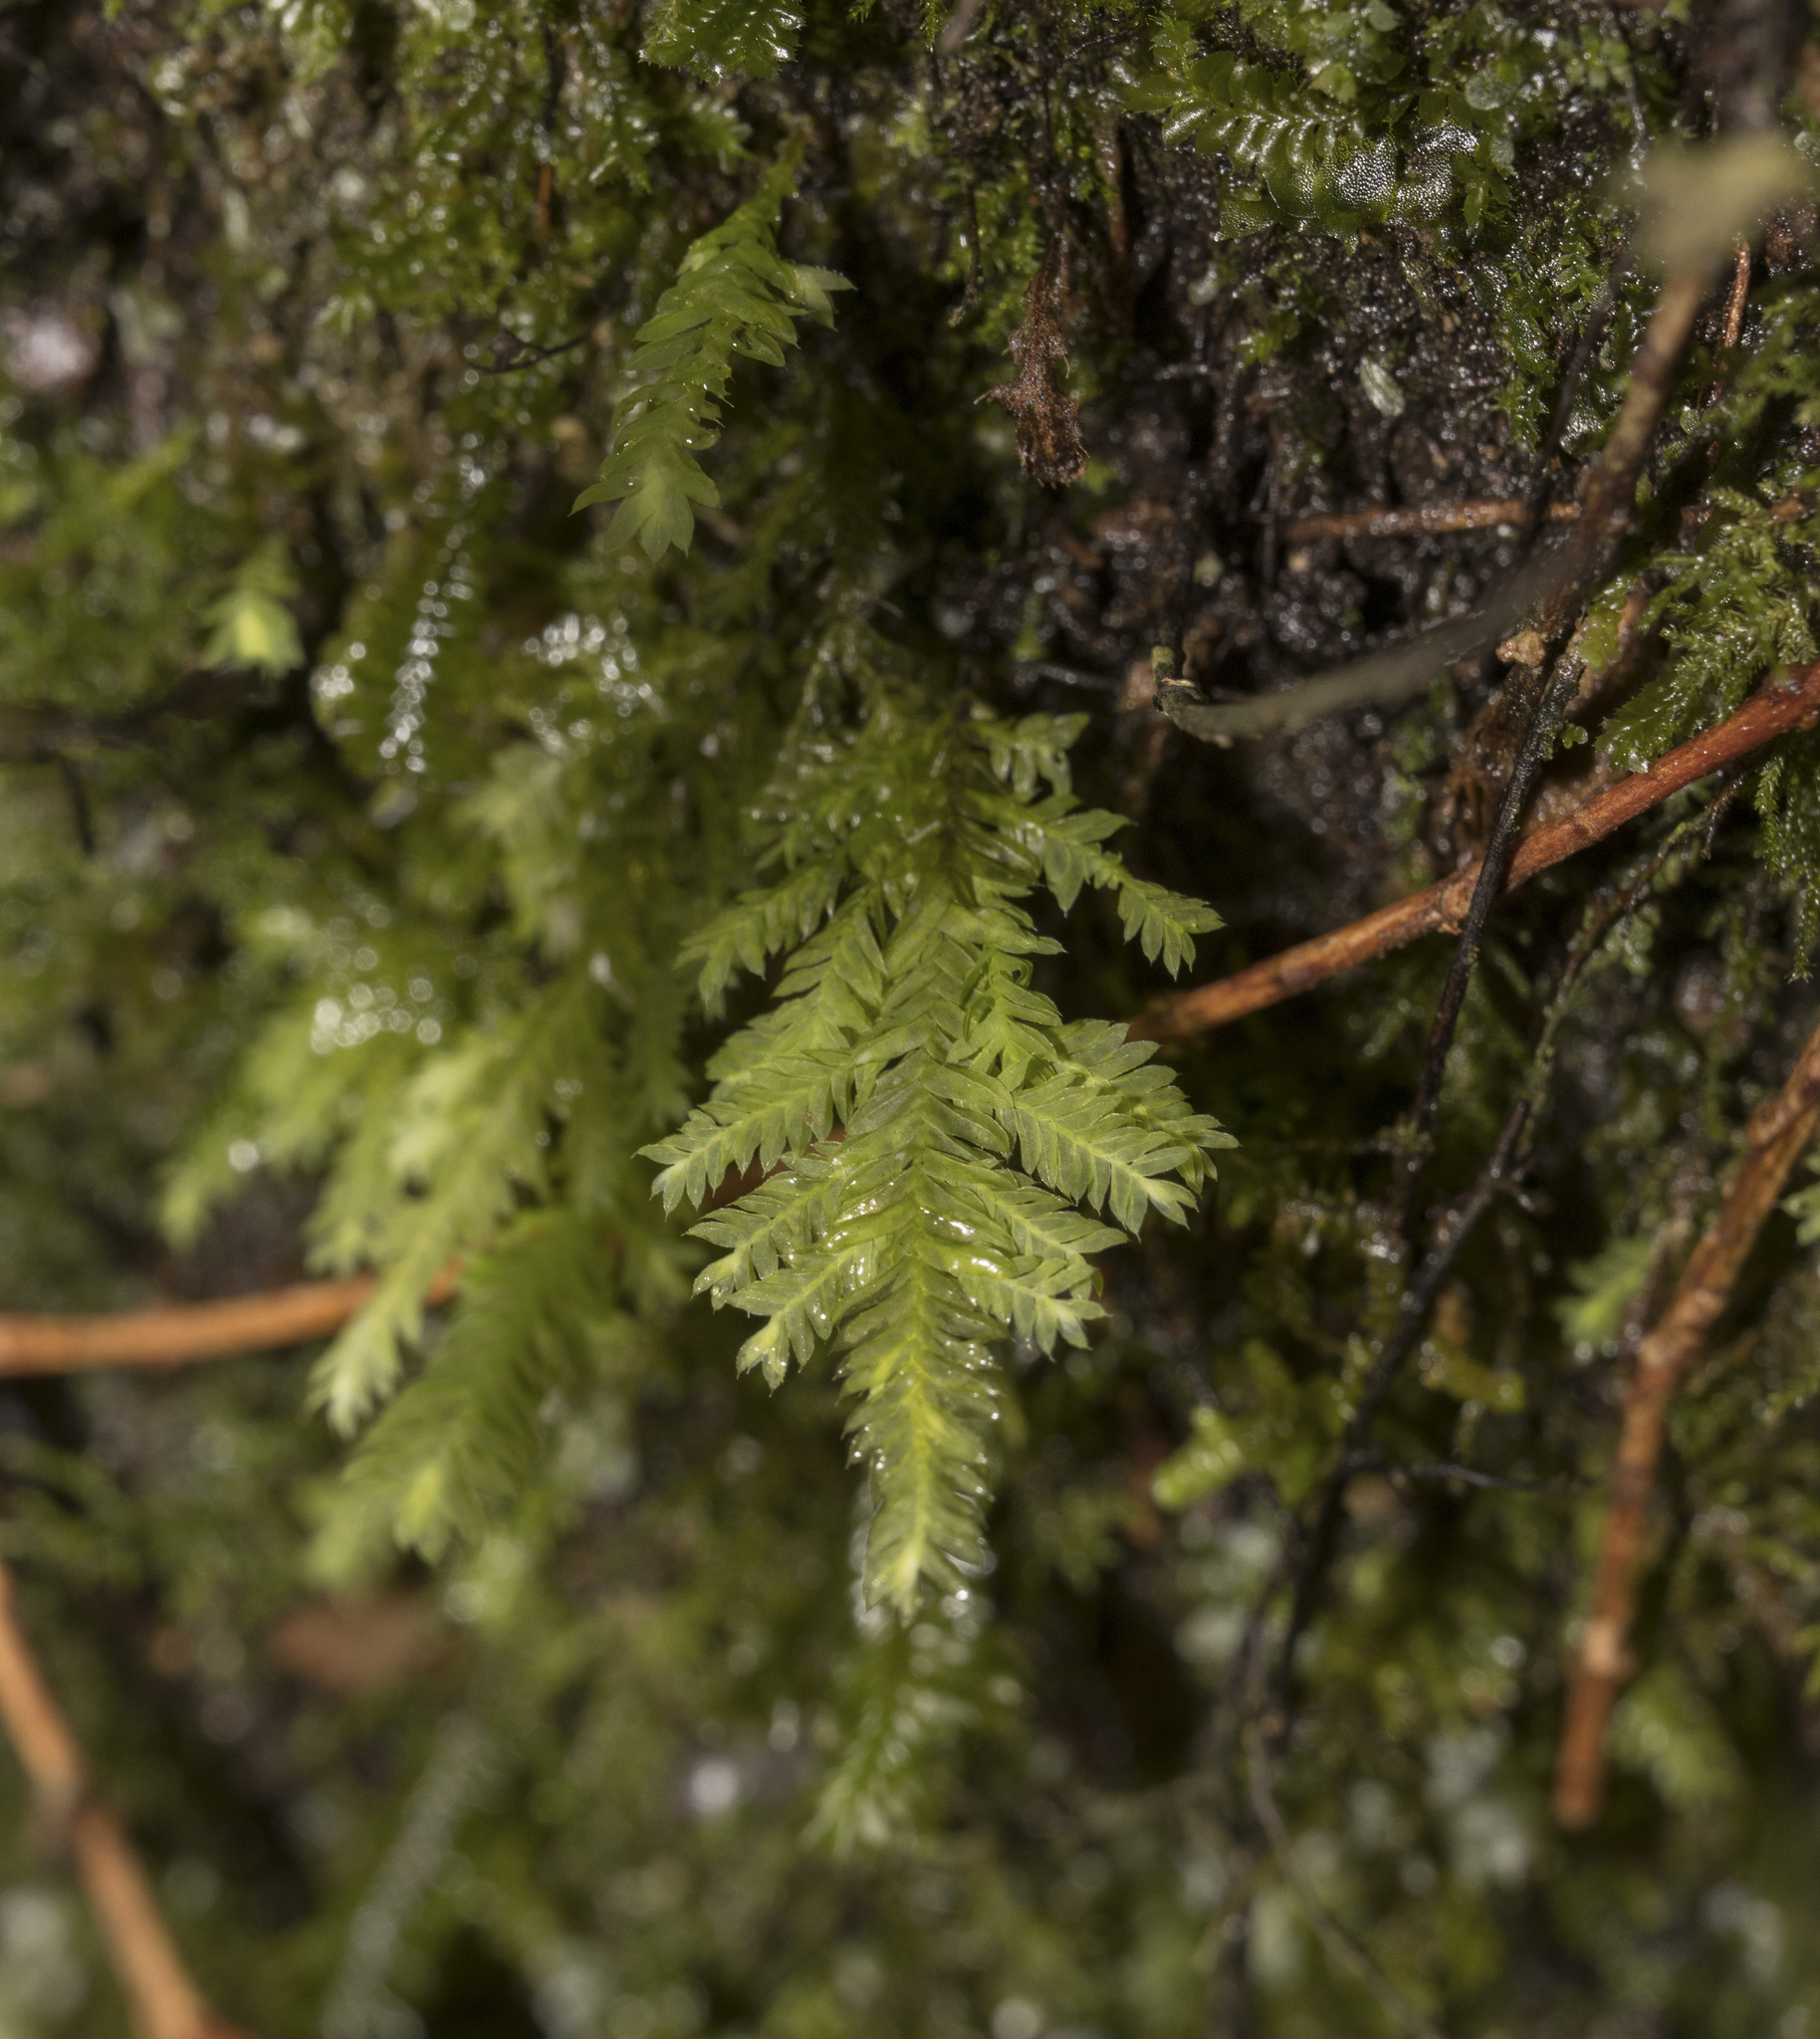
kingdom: Plantae
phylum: Bryophyta
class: Bryopsida
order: Hypopterygiales
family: Hypopterygiaceae
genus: Lopidium
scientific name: Lopidium concinnum
